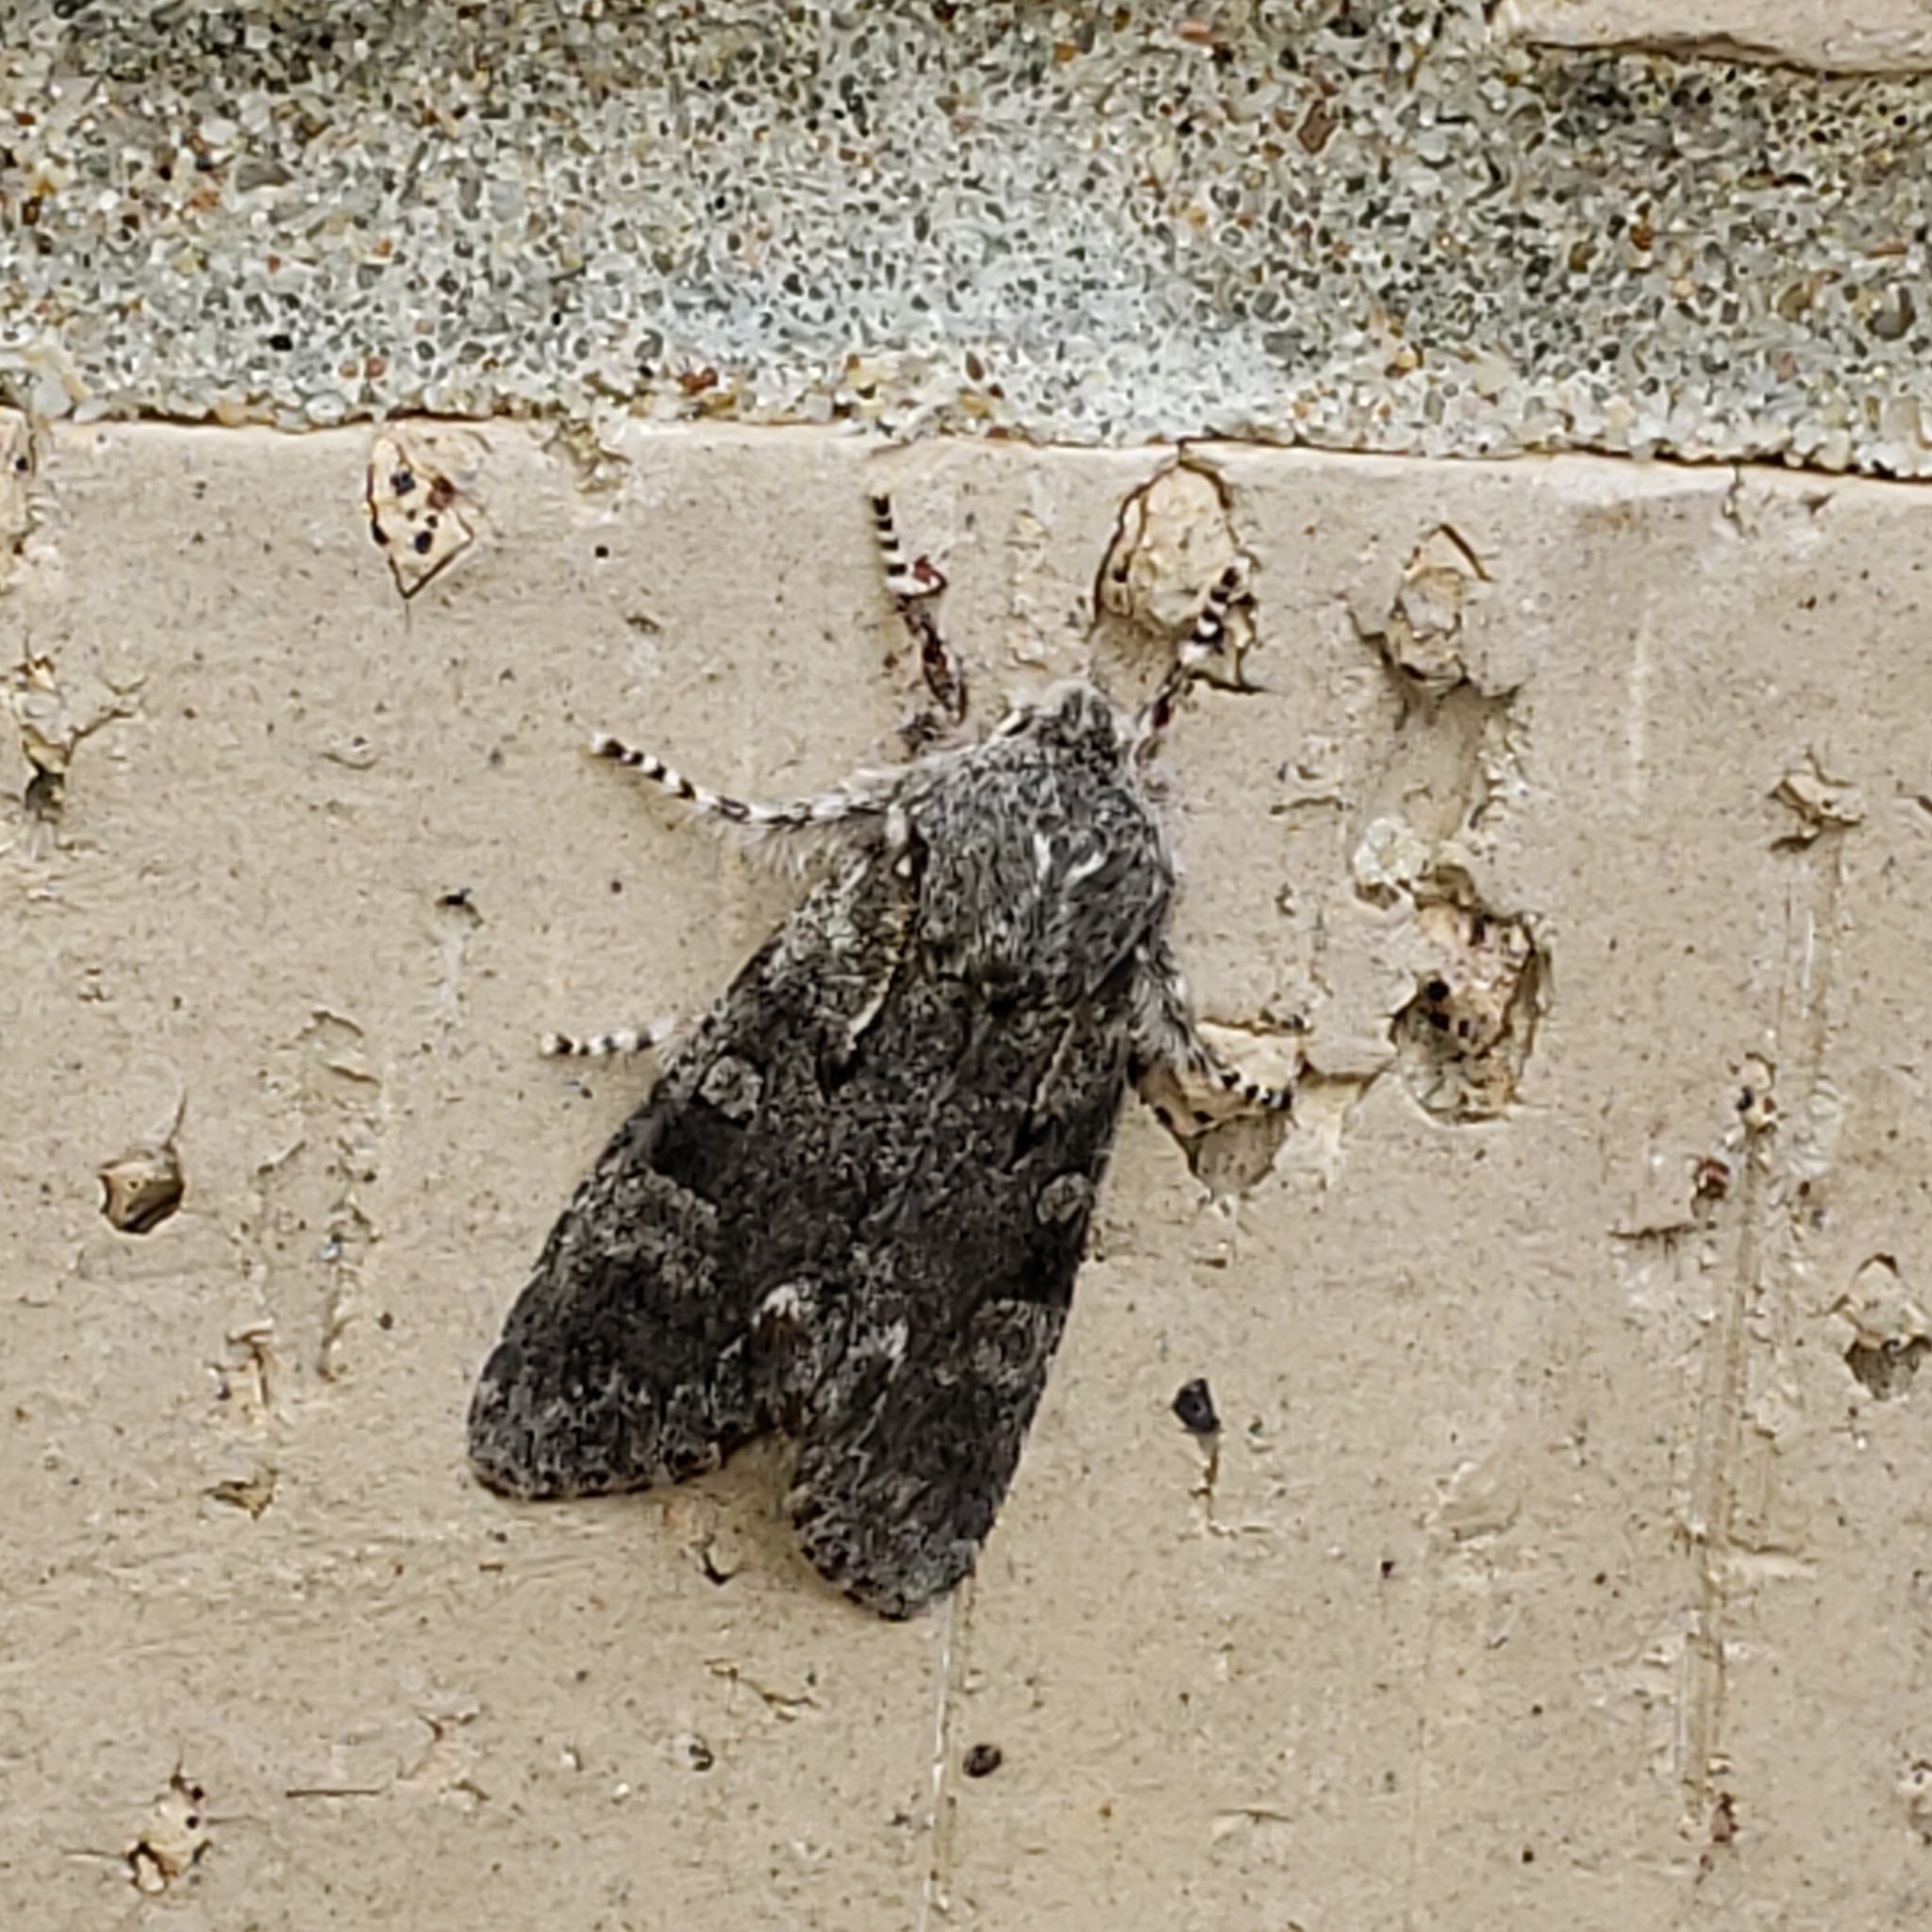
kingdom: Animalia
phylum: Arthropoda
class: Insecta
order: Lepidoptera
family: Noctuidae
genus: Psaphida
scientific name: Psaphida electilis
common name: Chosen sallow
